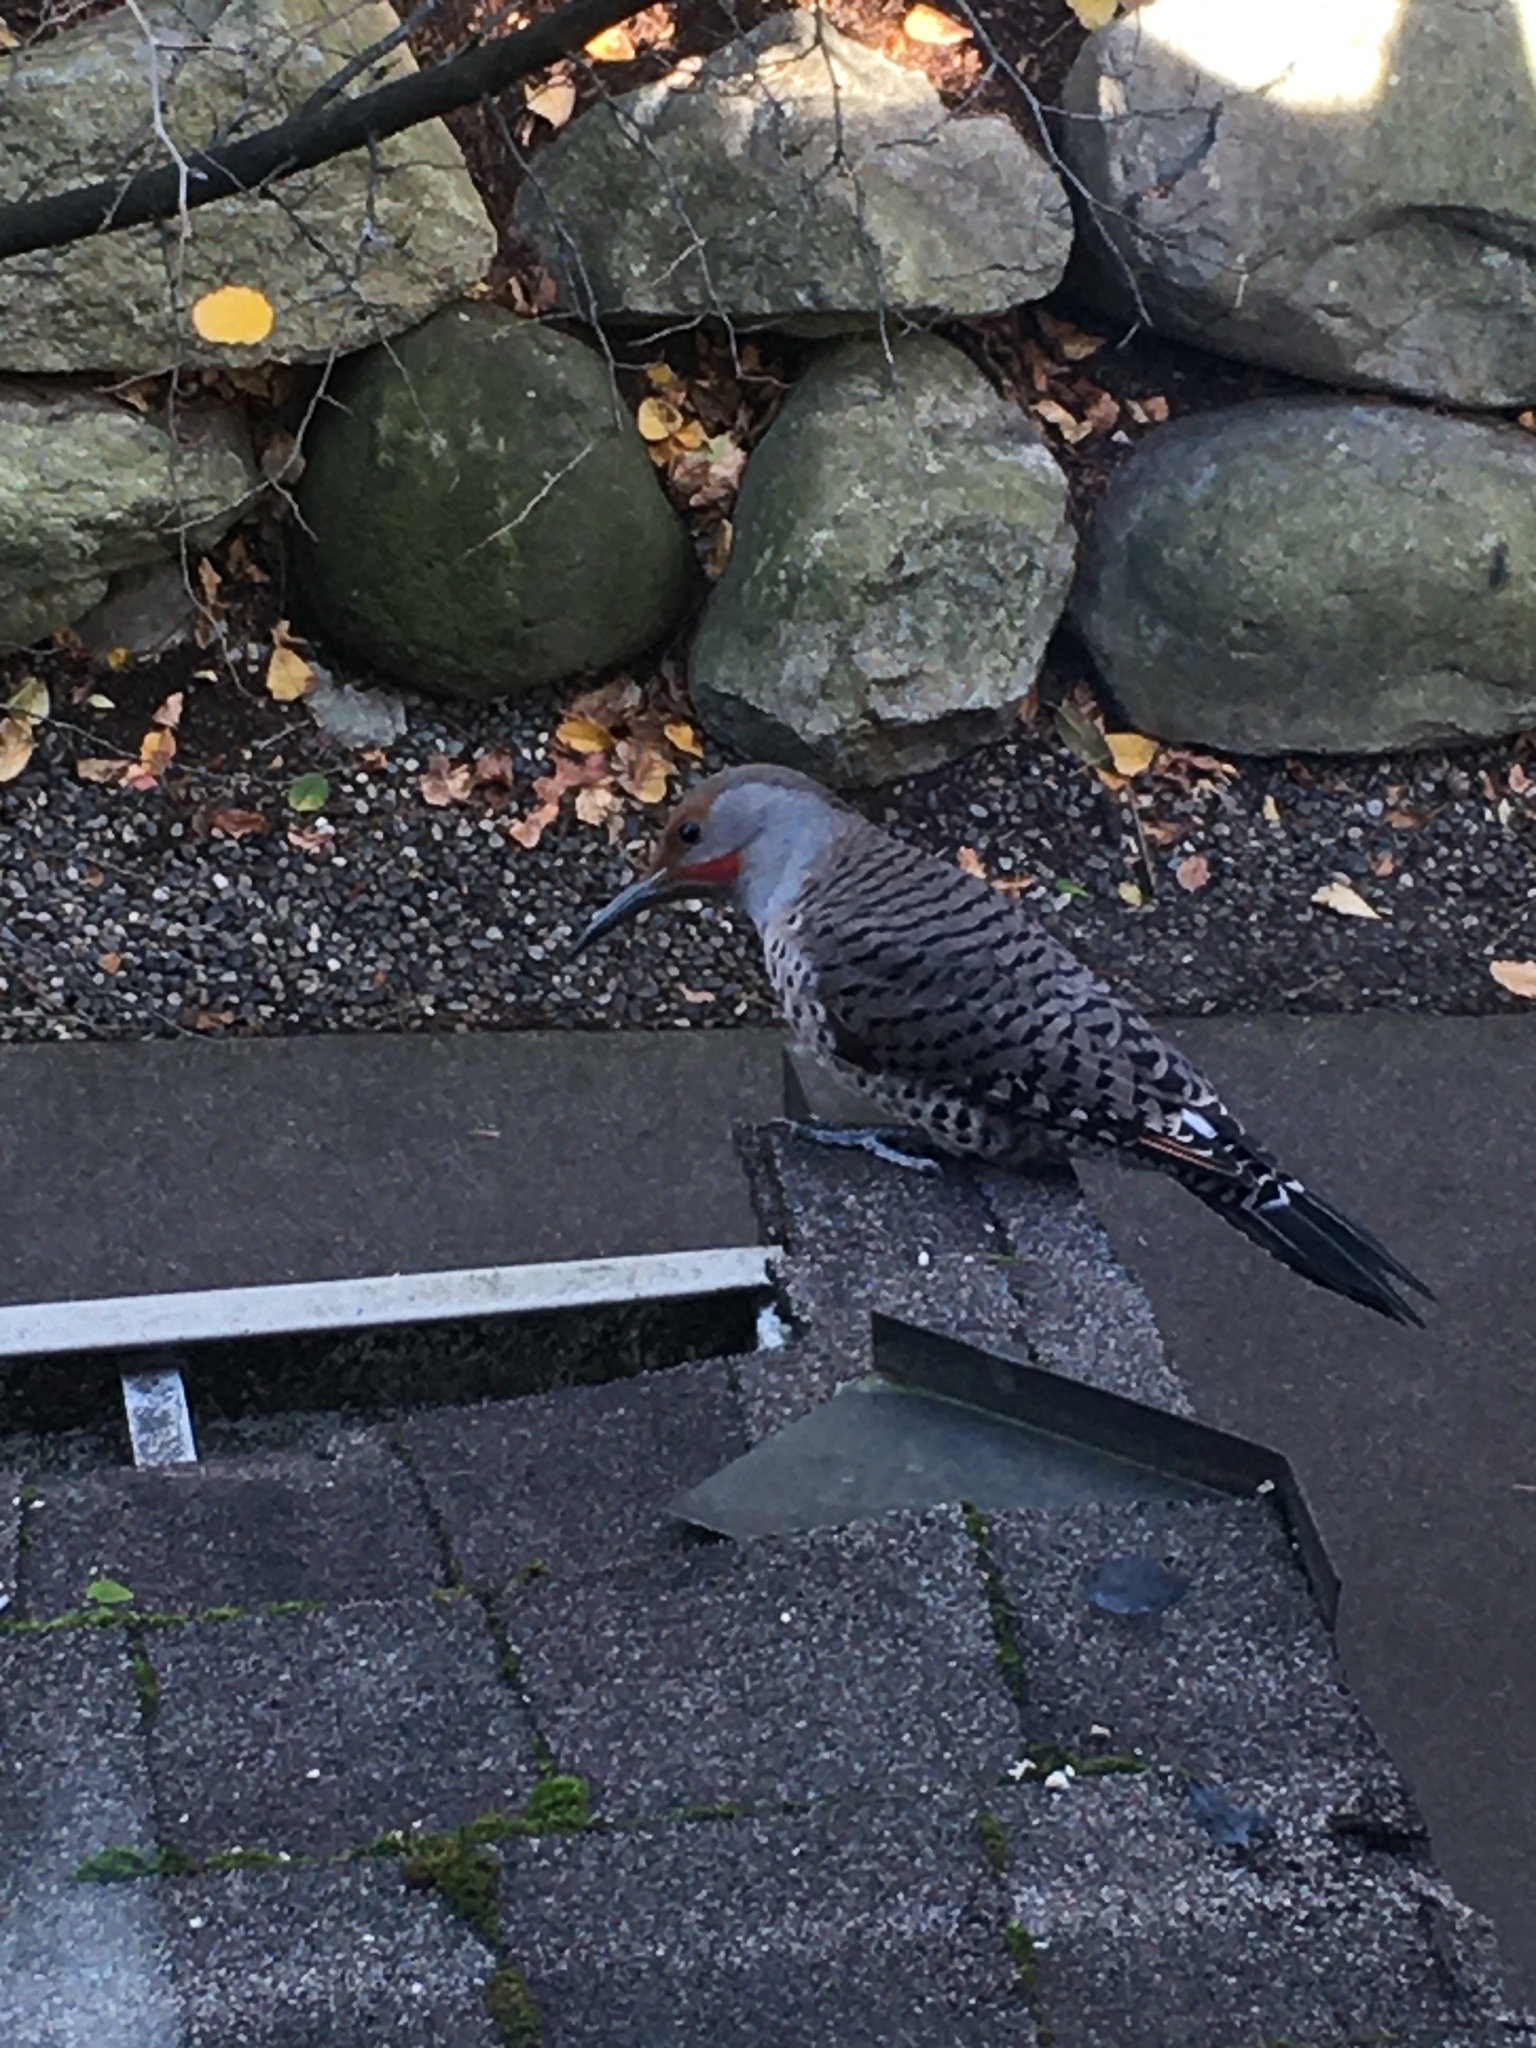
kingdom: Animalia
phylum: Chordata
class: Aves
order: Piciformes
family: Picidae
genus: Colaptes
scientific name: Colaptes auratus
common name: Northern flicker
